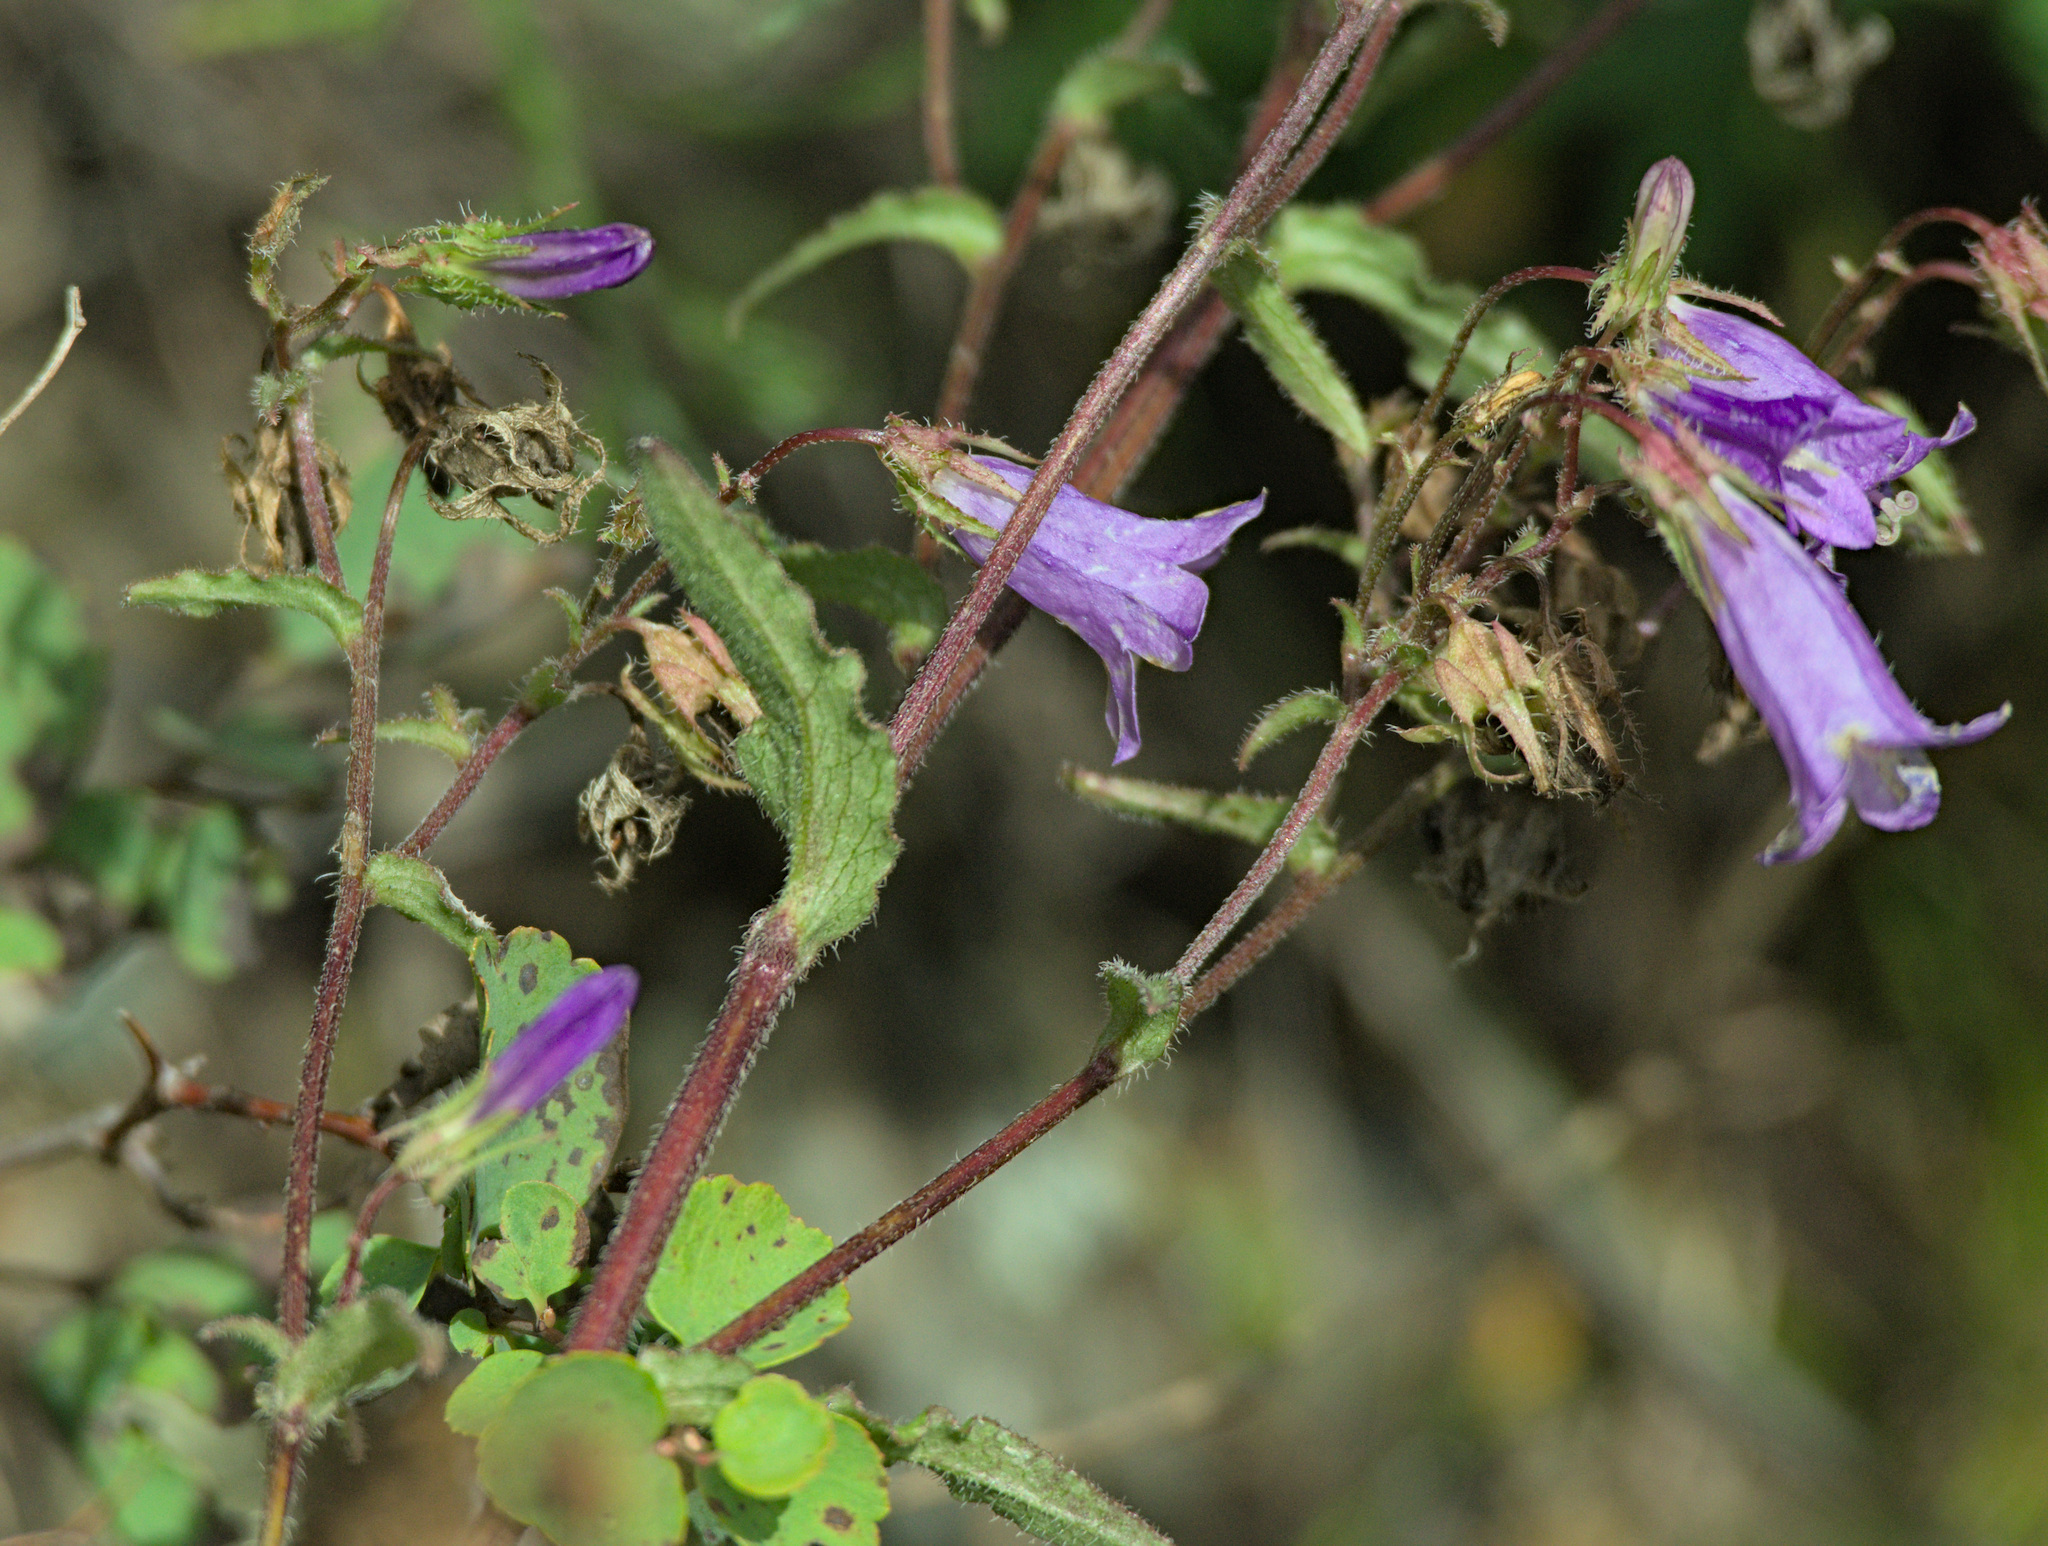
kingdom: Plantae
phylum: Tracheophyta
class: Magnoliopsida
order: Asterales
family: Campanulaceae
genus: Campanula
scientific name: Campanula sibirica
